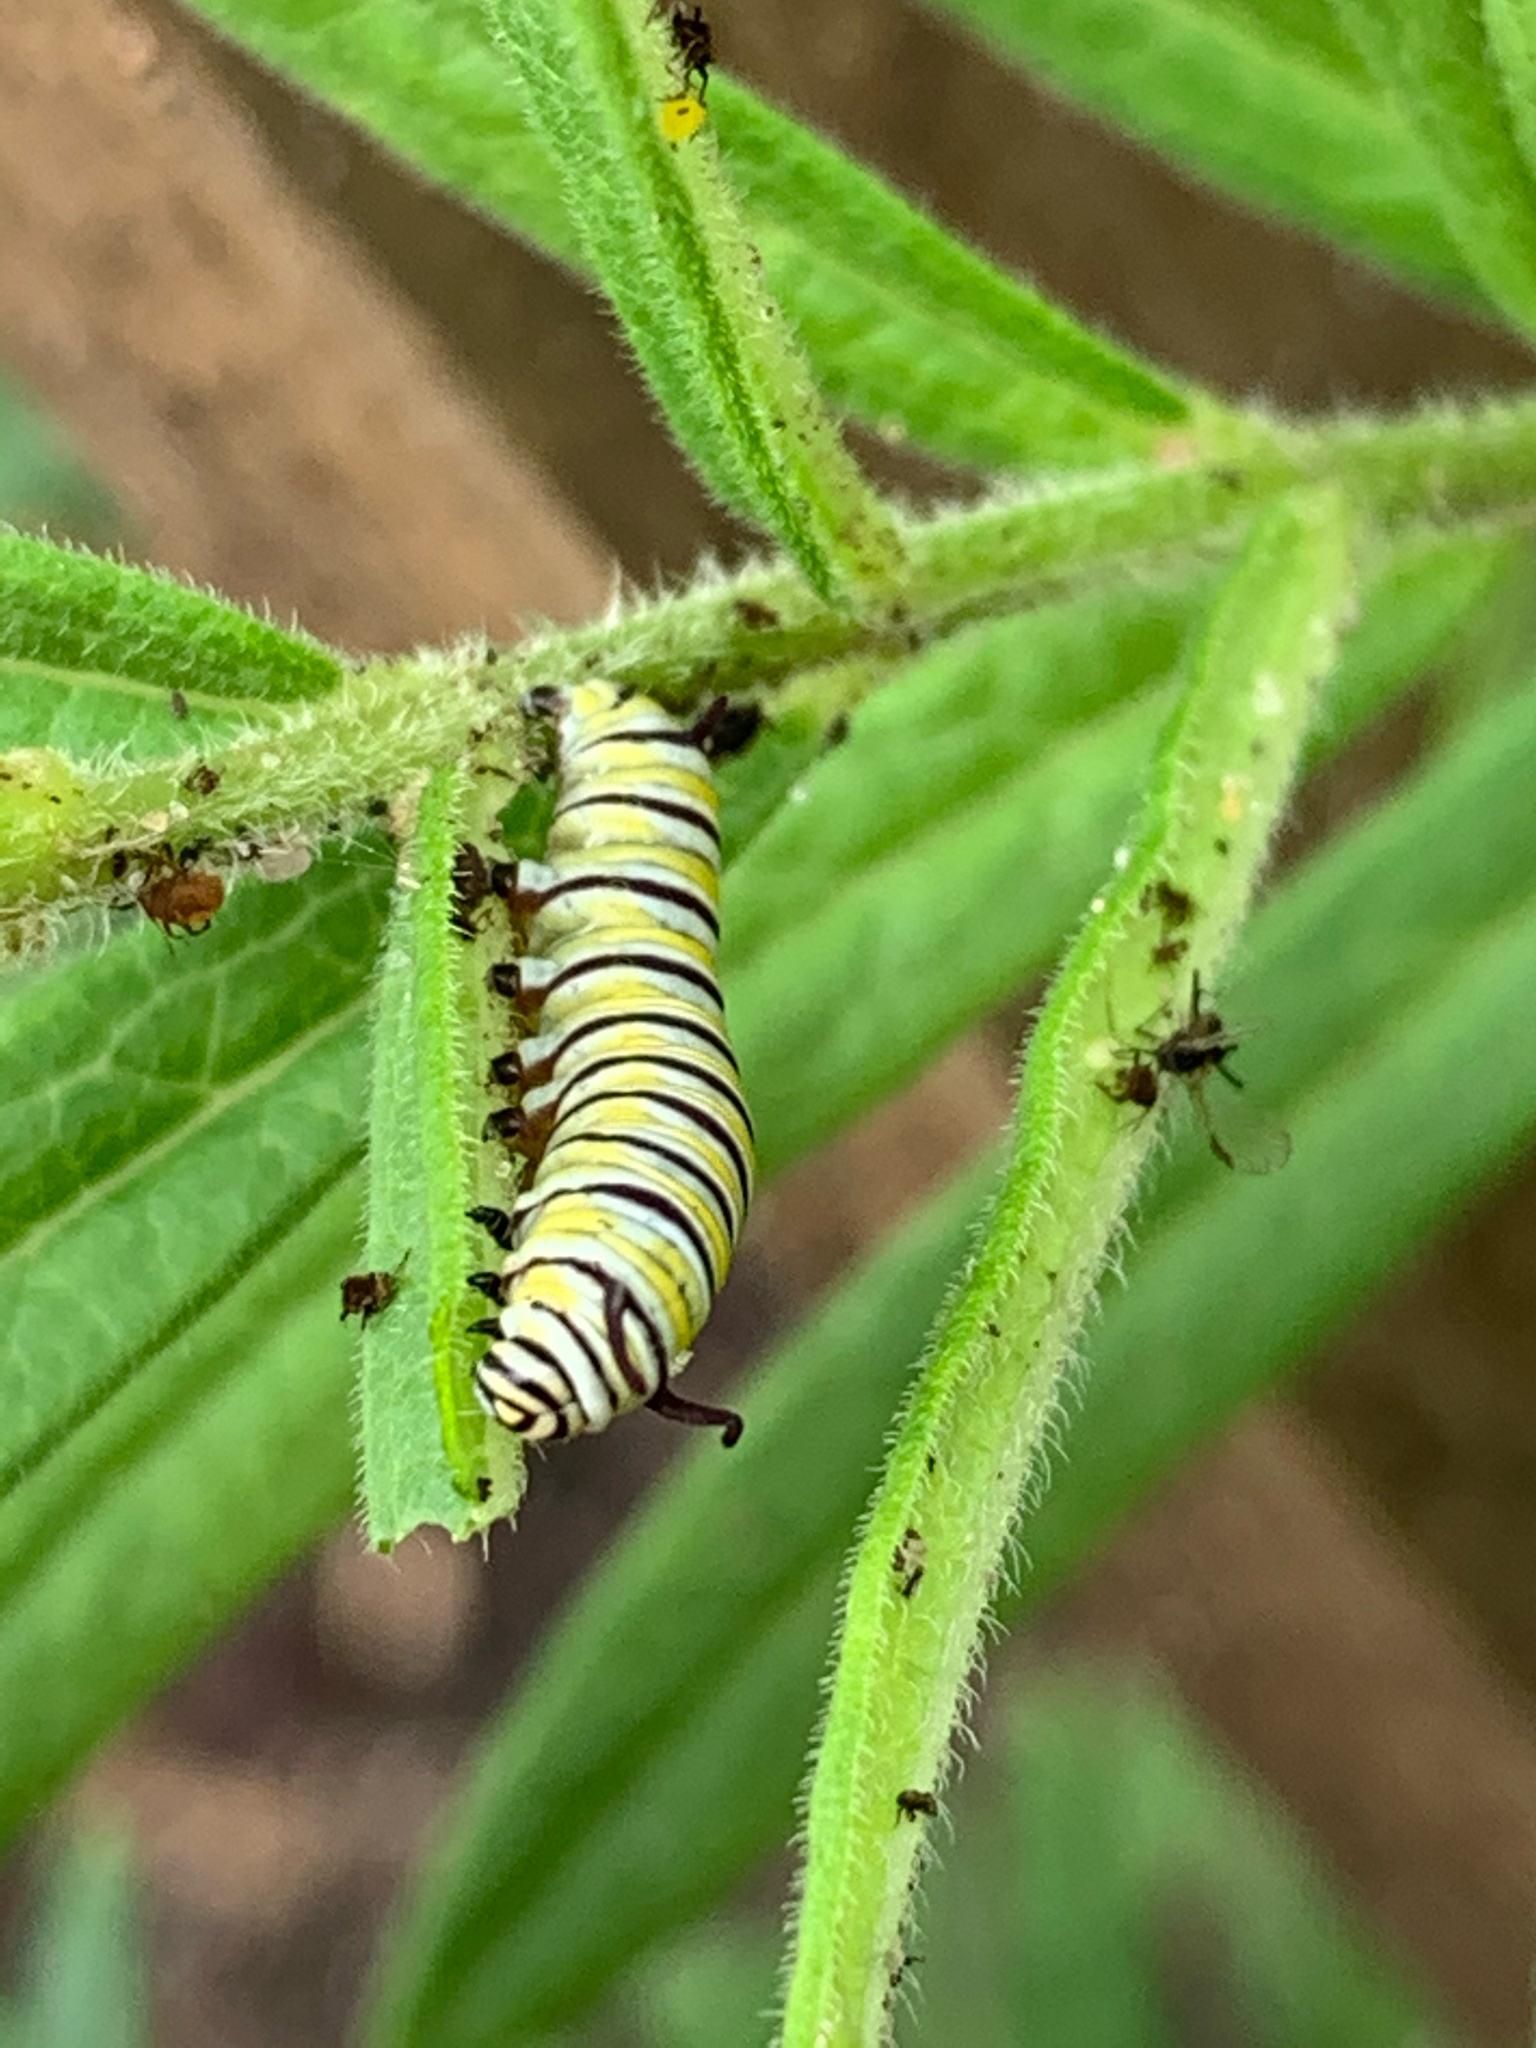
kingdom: Animalia
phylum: Arthropoda
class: Insecta
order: Lepidoptera
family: Nymphalidae
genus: Danaus
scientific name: Danaus plexippus
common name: Monarch
